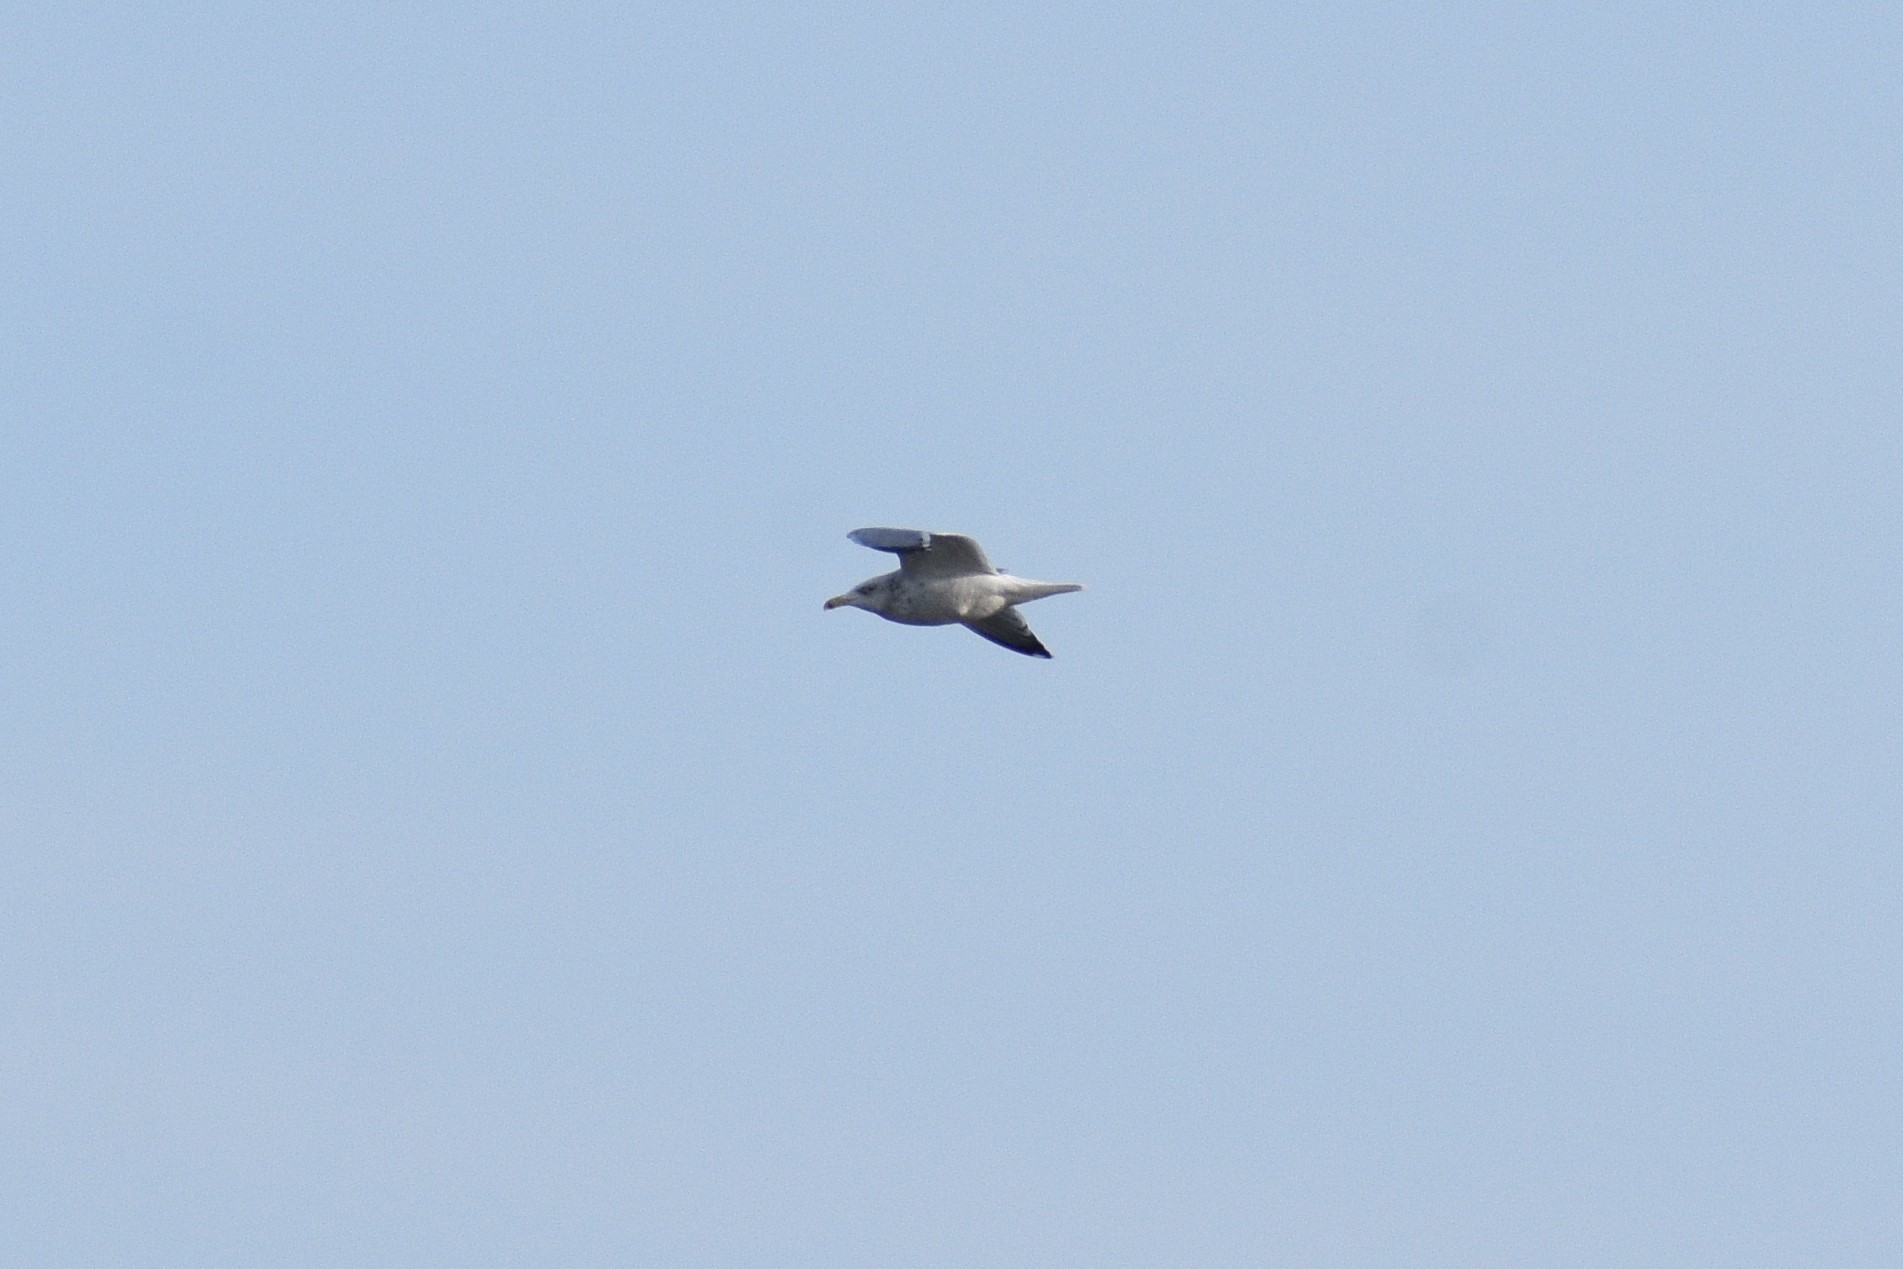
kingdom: Animalia
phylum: Chordata
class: Aves
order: Charadriiformes
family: Laridae
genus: Larus
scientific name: Larus argentatus
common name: Herring gull
